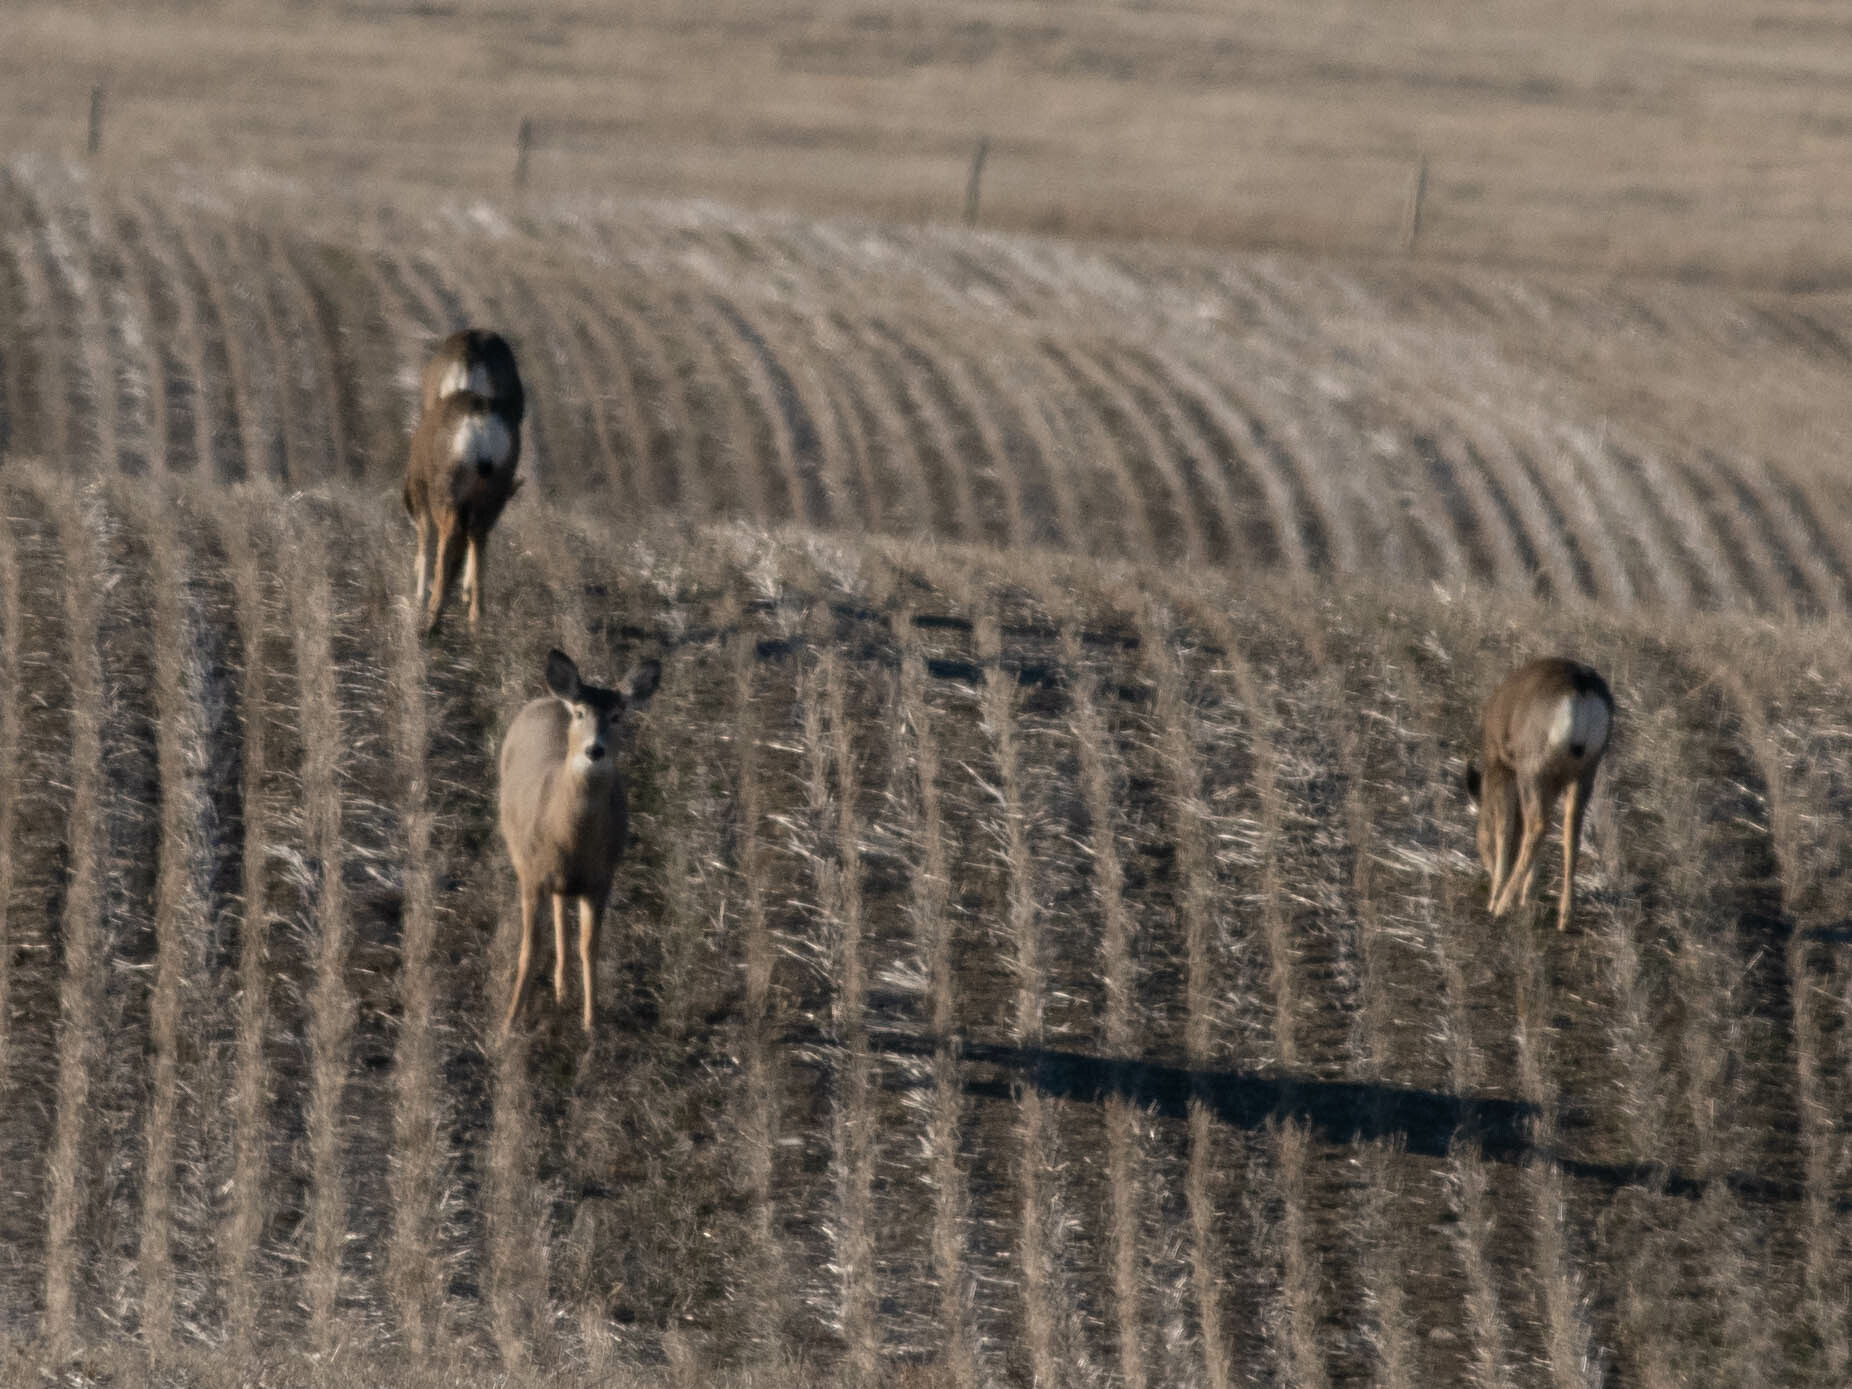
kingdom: Animalia
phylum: Chordata
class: Mammalia
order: Artiodactyla
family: Cervidae
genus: Odocoileus
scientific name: Odocoileus hemionus
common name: Mule deer
